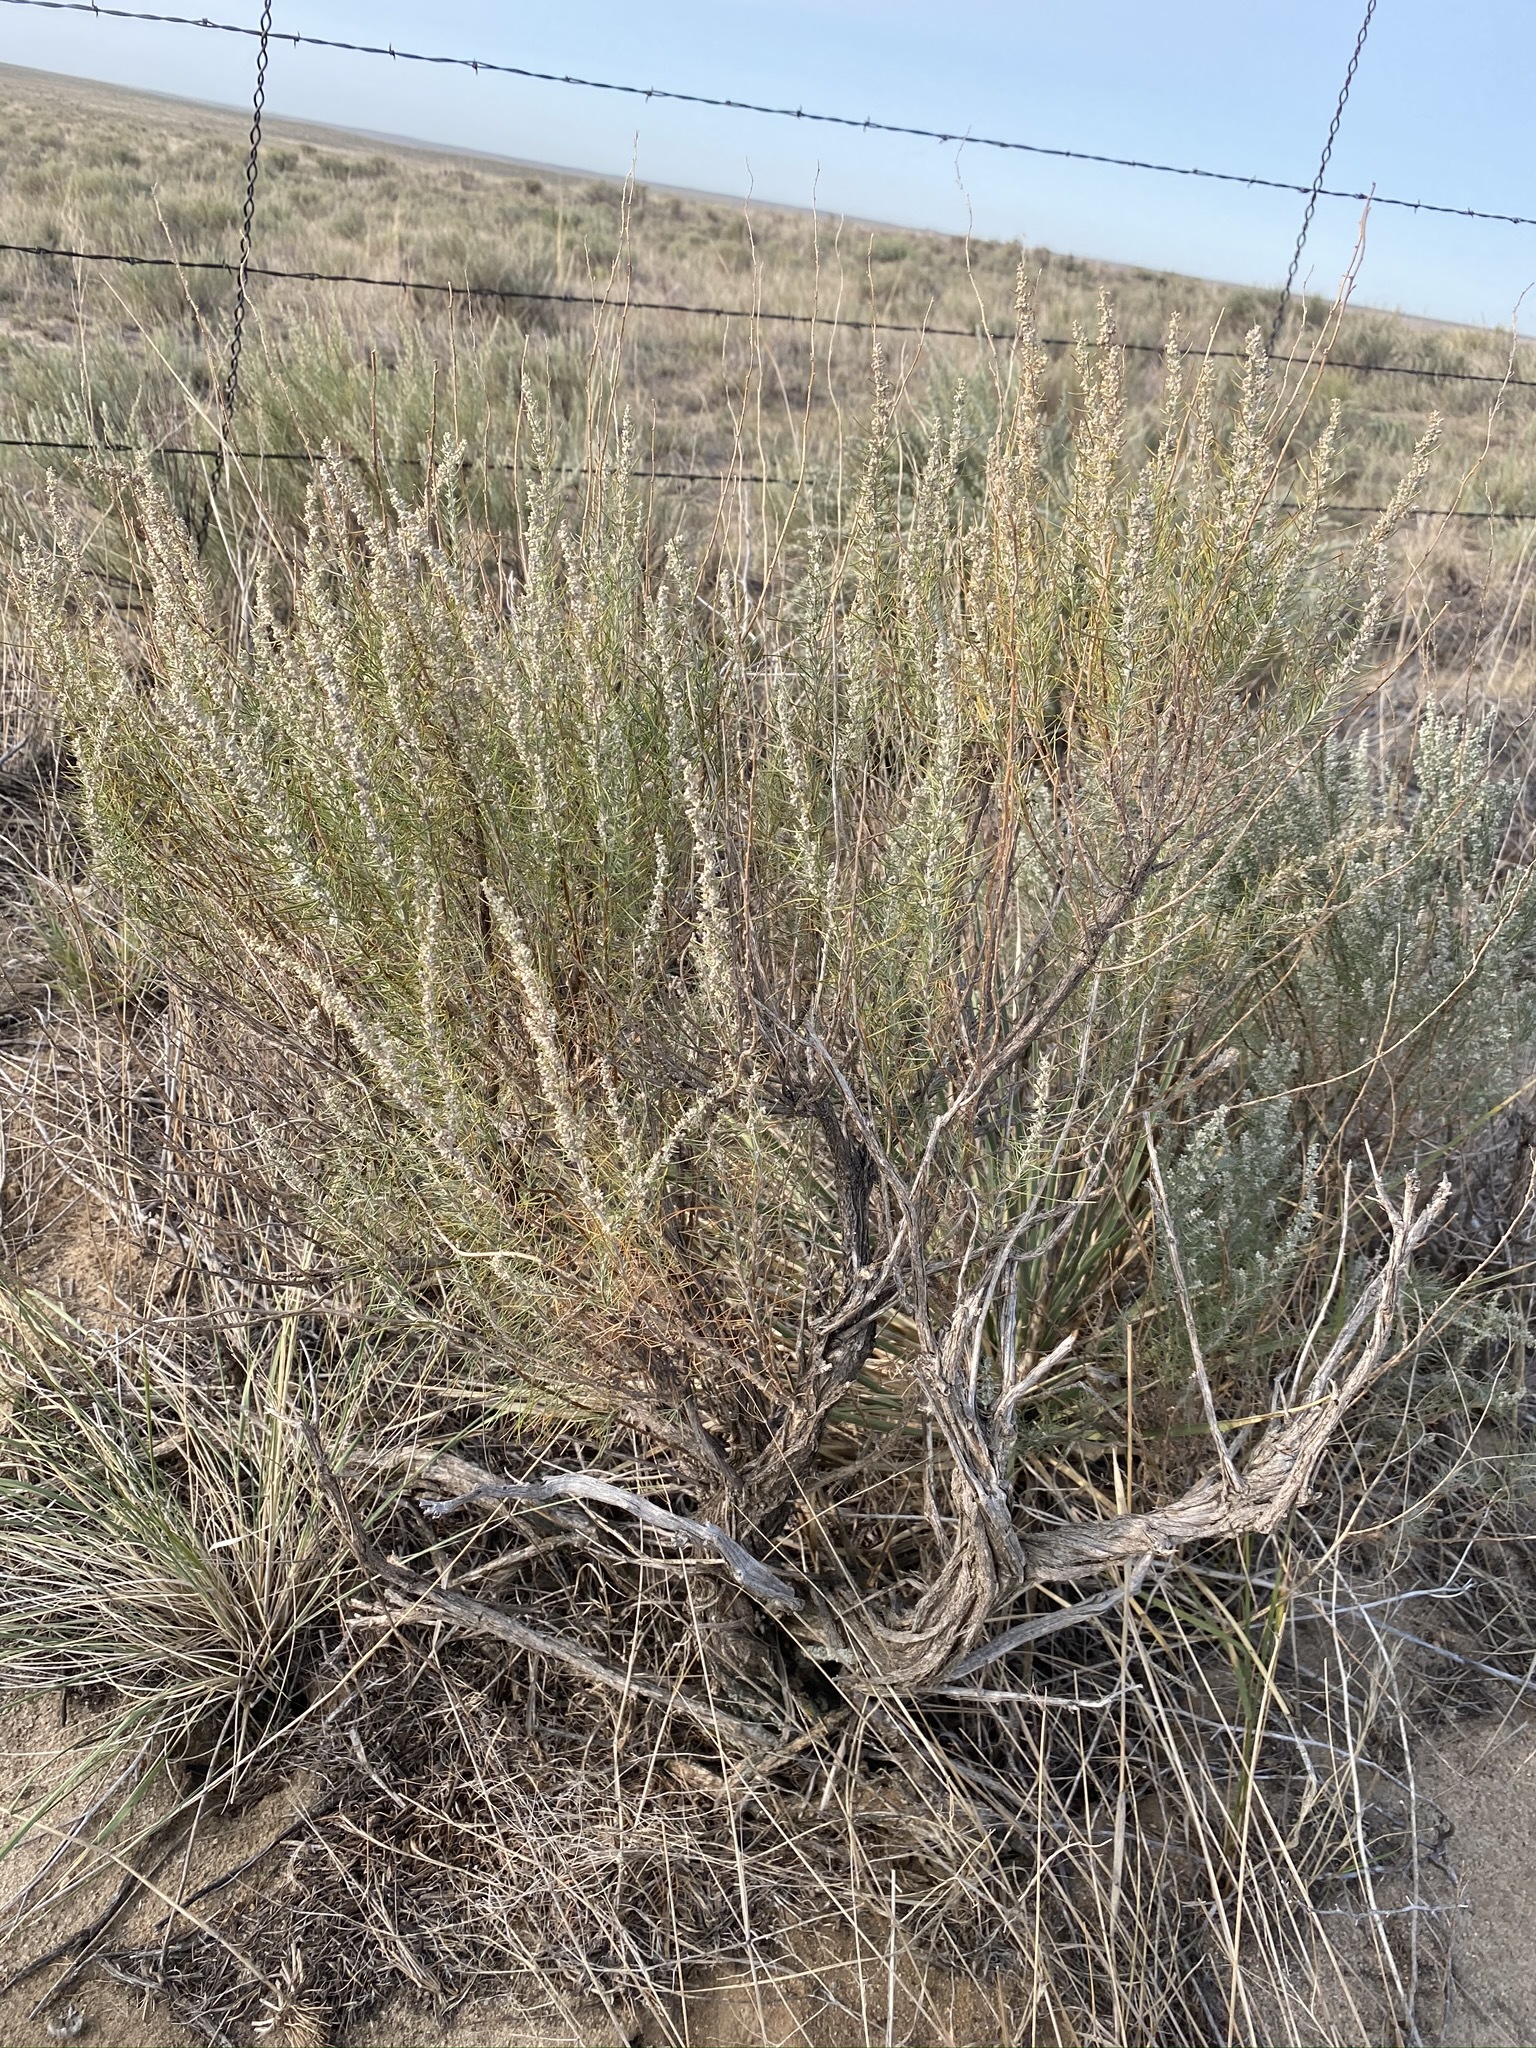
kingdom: Plantae
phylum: Tracheophyta
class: Magnoliopsida
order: Asterales
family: Asteraceae
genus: Artemisia
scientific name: Artemisia filifolia
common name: Sand-sage
